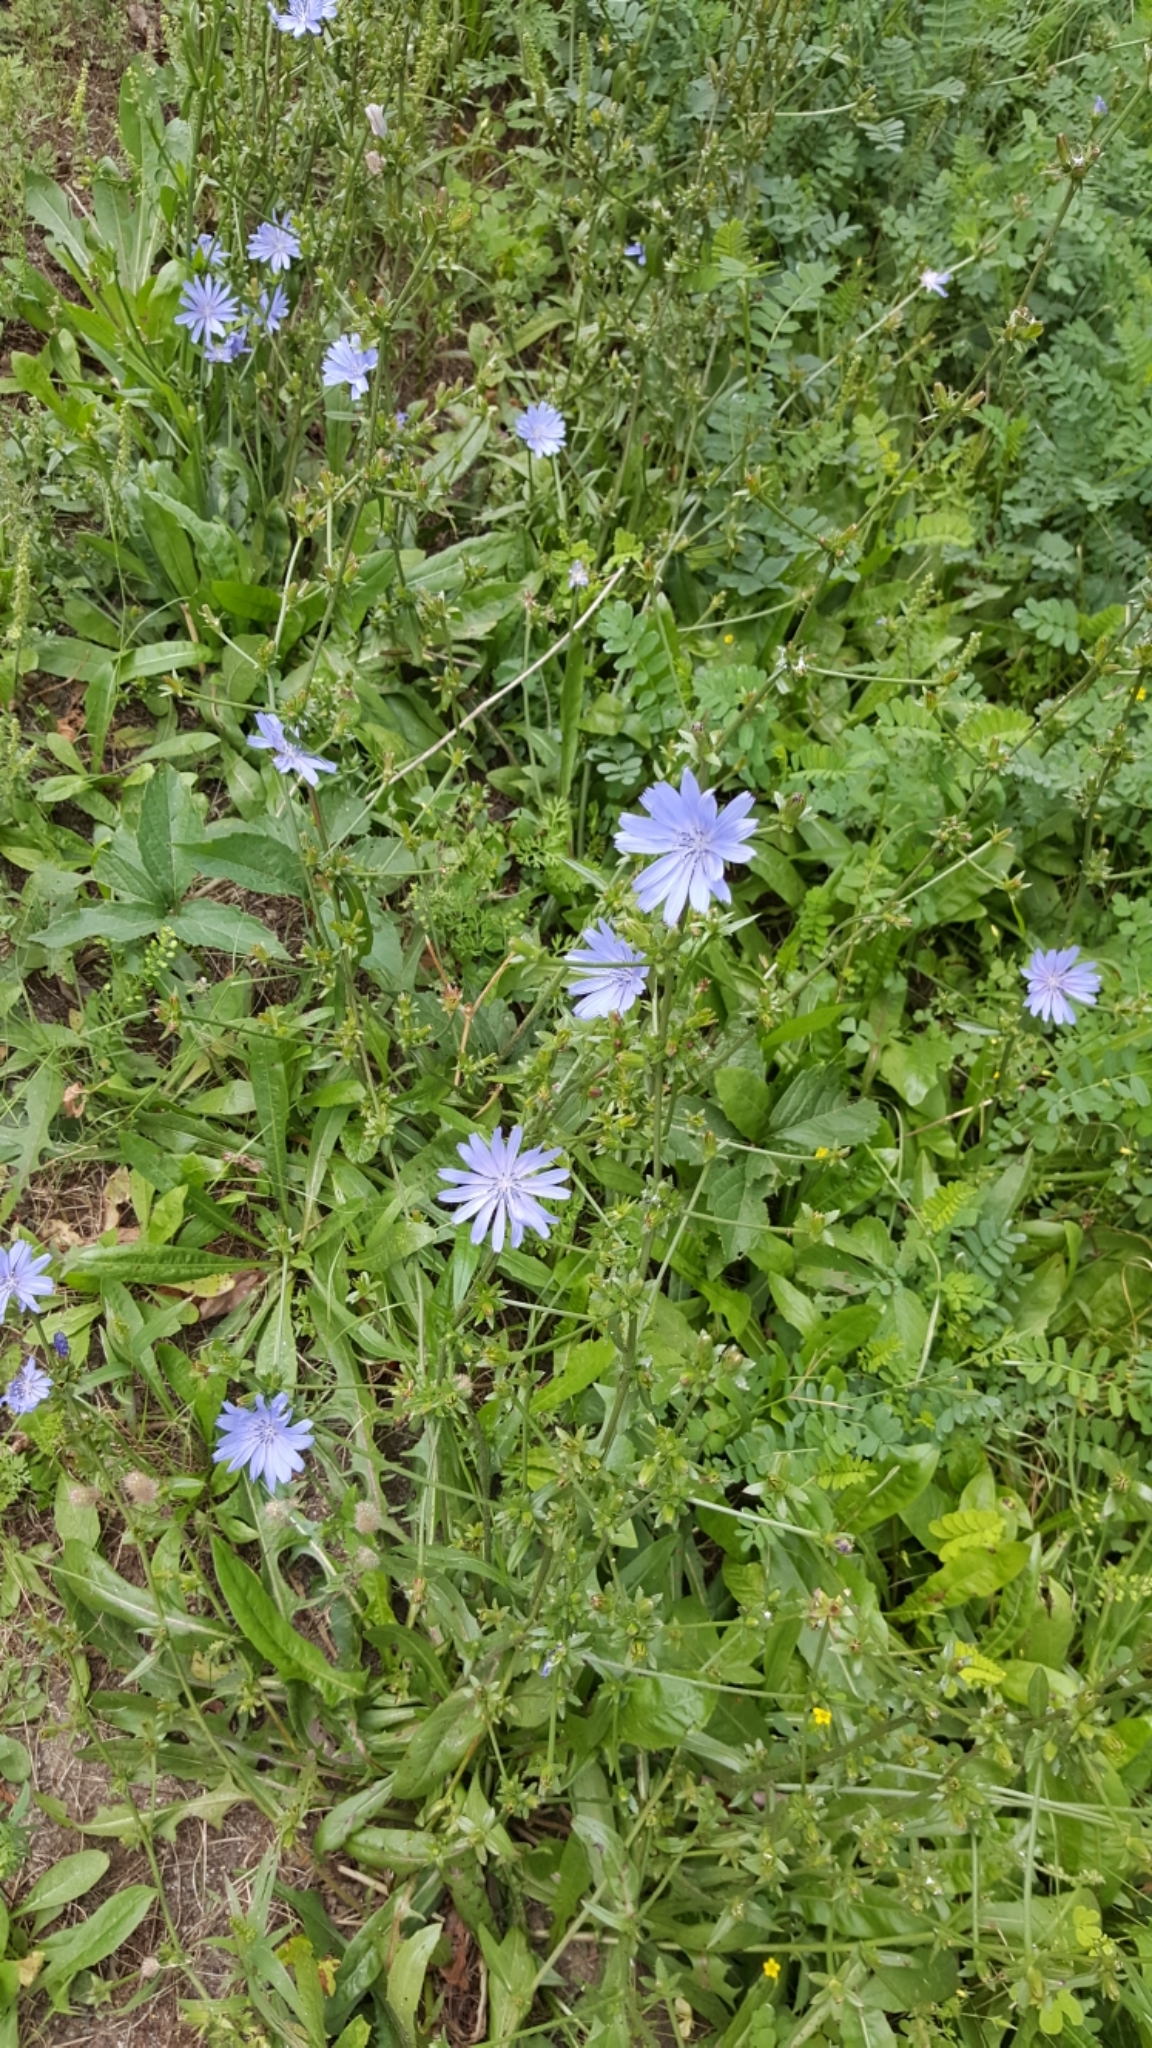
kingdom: Plantae
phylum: Tracheophyta
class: Magnoliopsida
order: Asterales
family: Asteraceae
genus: Cichorium
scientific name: Cichorium intybus
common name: Chicory
